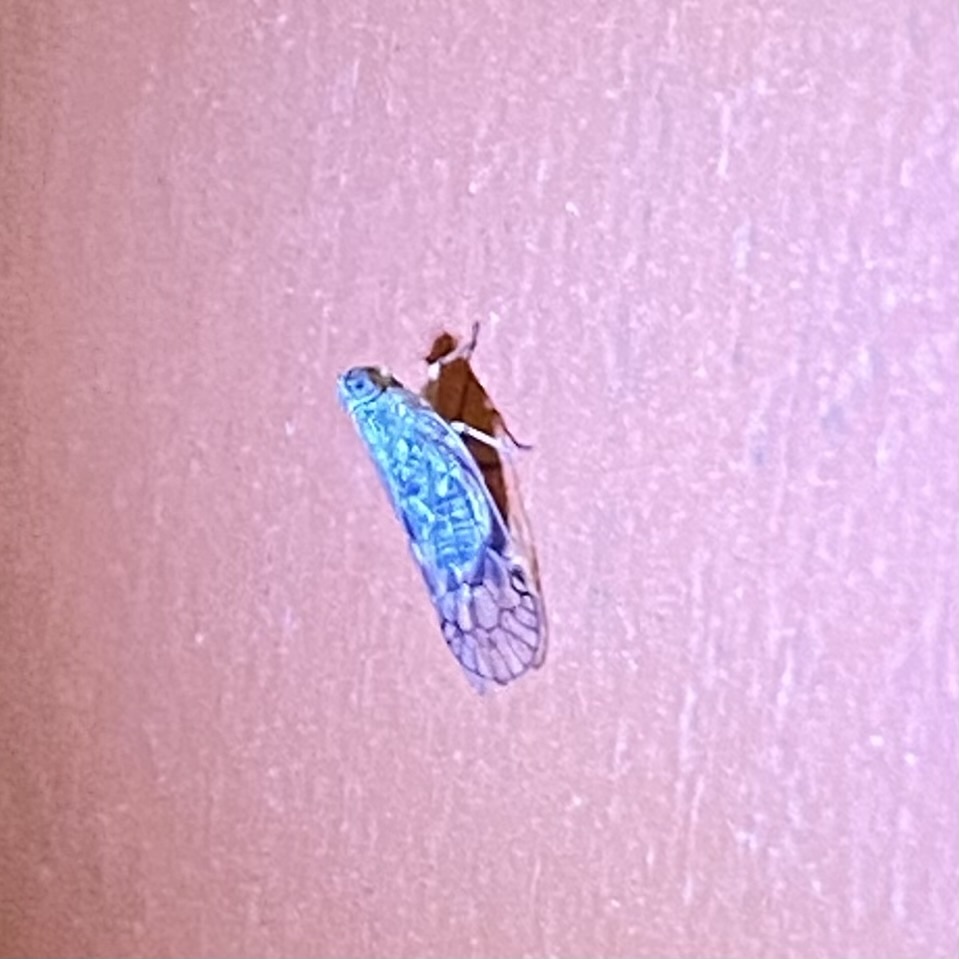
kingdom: Animalia
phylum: Arthropoda
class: Insecta
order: Hemiptera
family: Cixiidae
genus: Oecleus
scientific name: Oecleus
